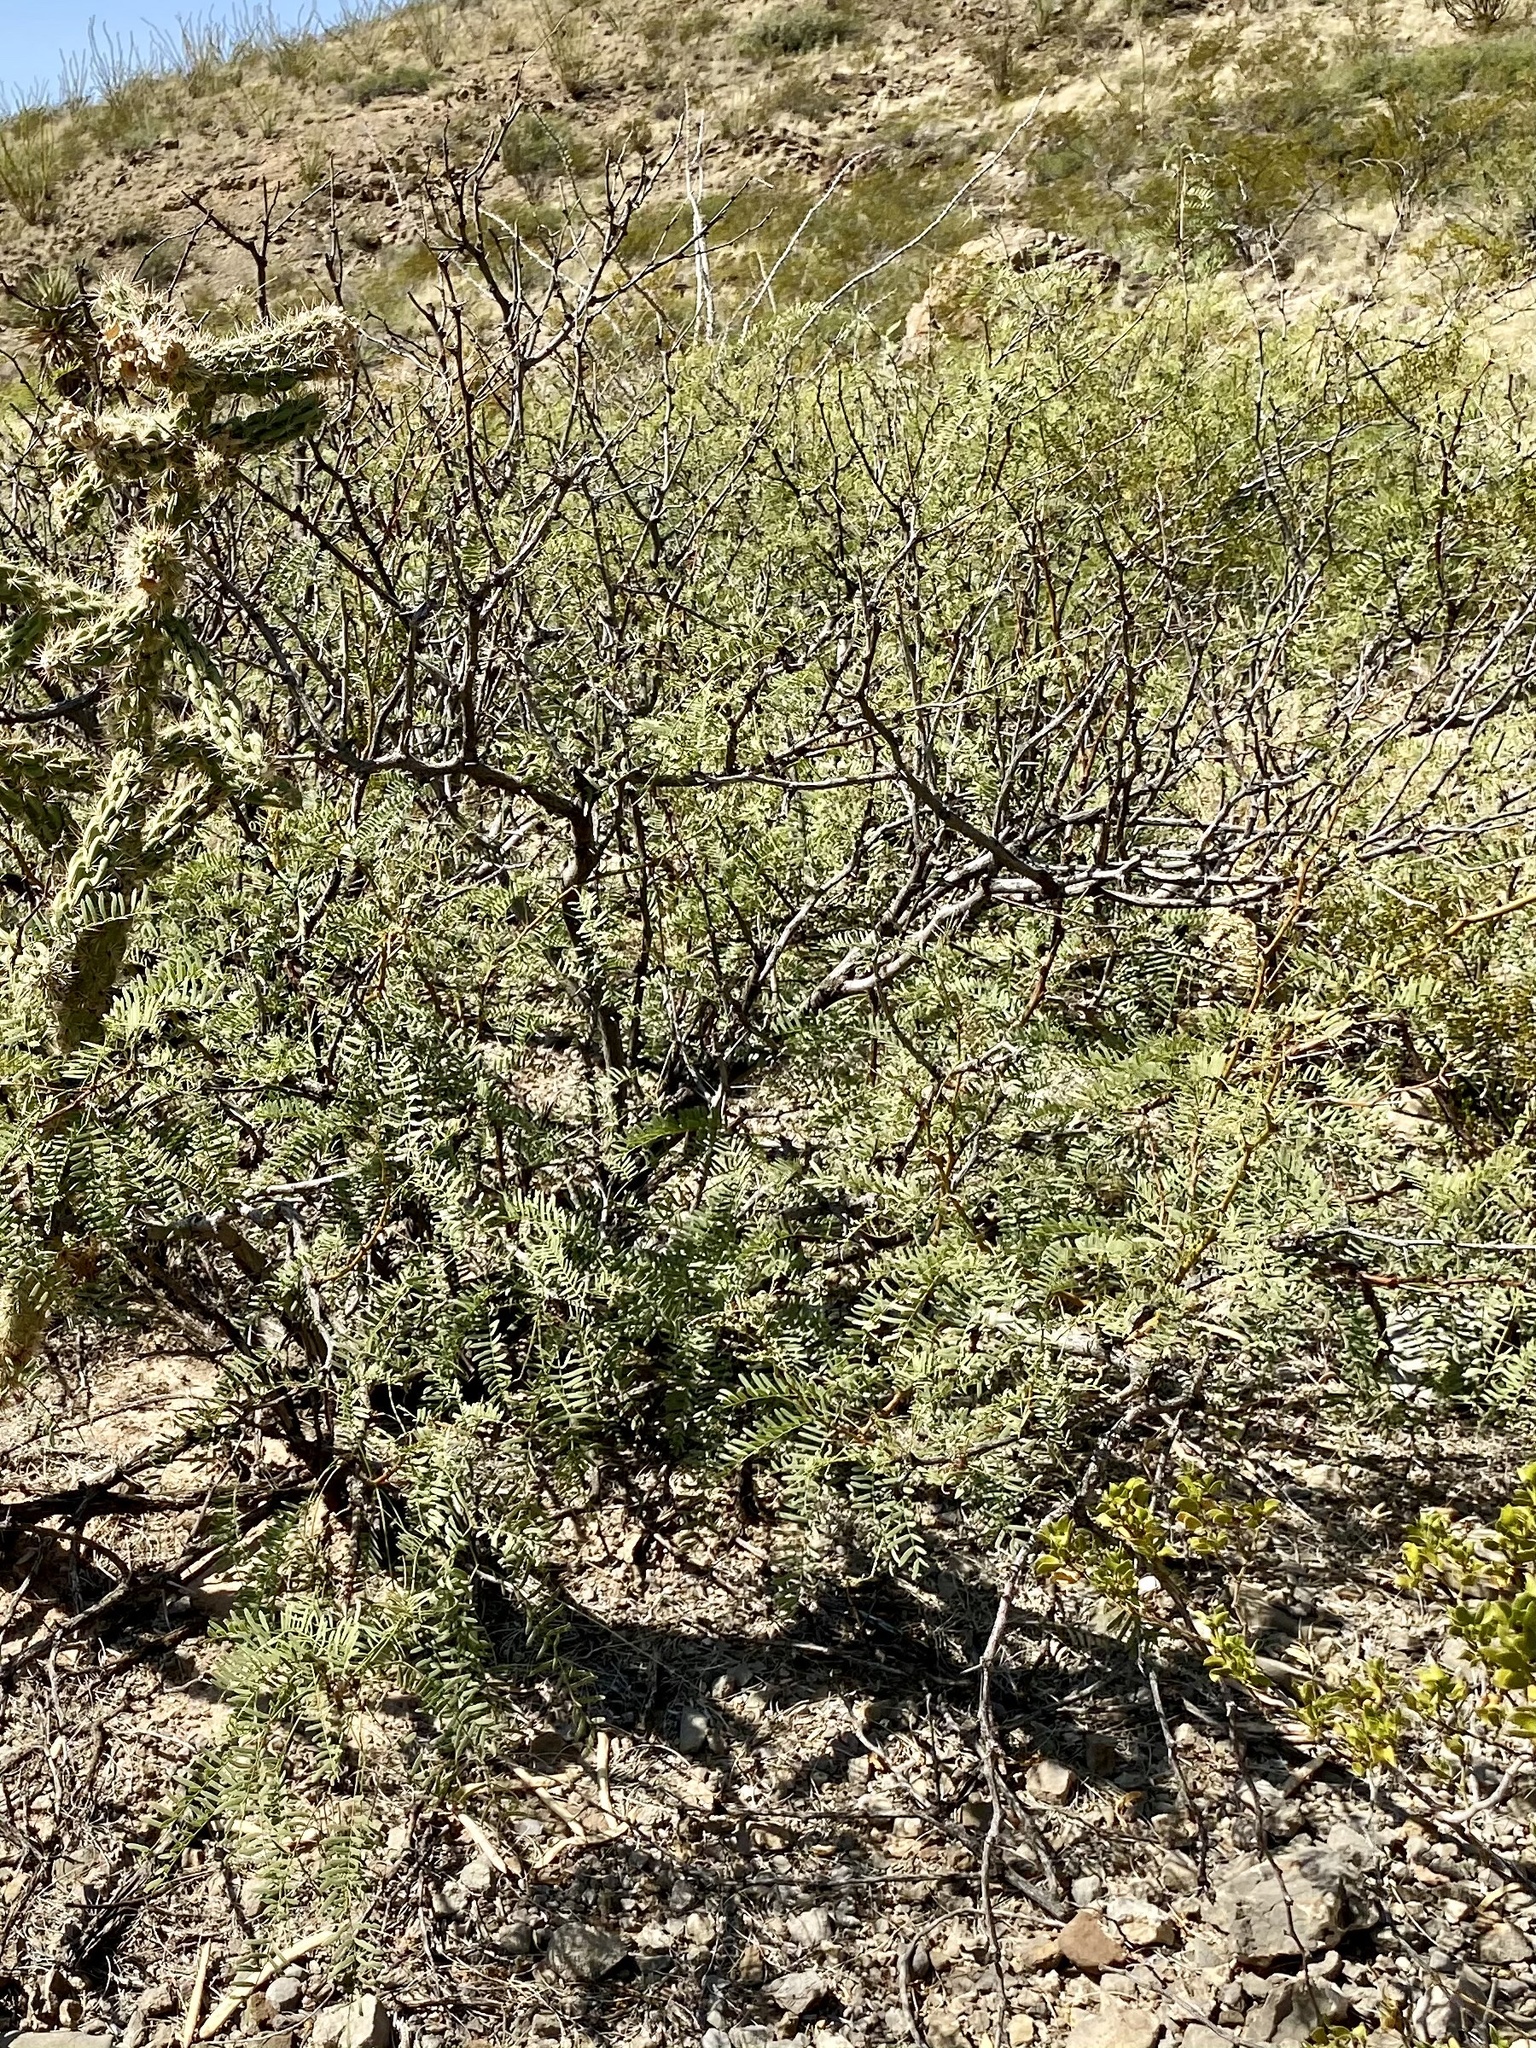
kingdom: Plantae
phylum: Tracheophyta
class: Magnoliopsida
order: Fabales
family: Fabaceae
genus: Prosopis
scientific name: Prosopis glandulosa
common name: Honey mesquite
